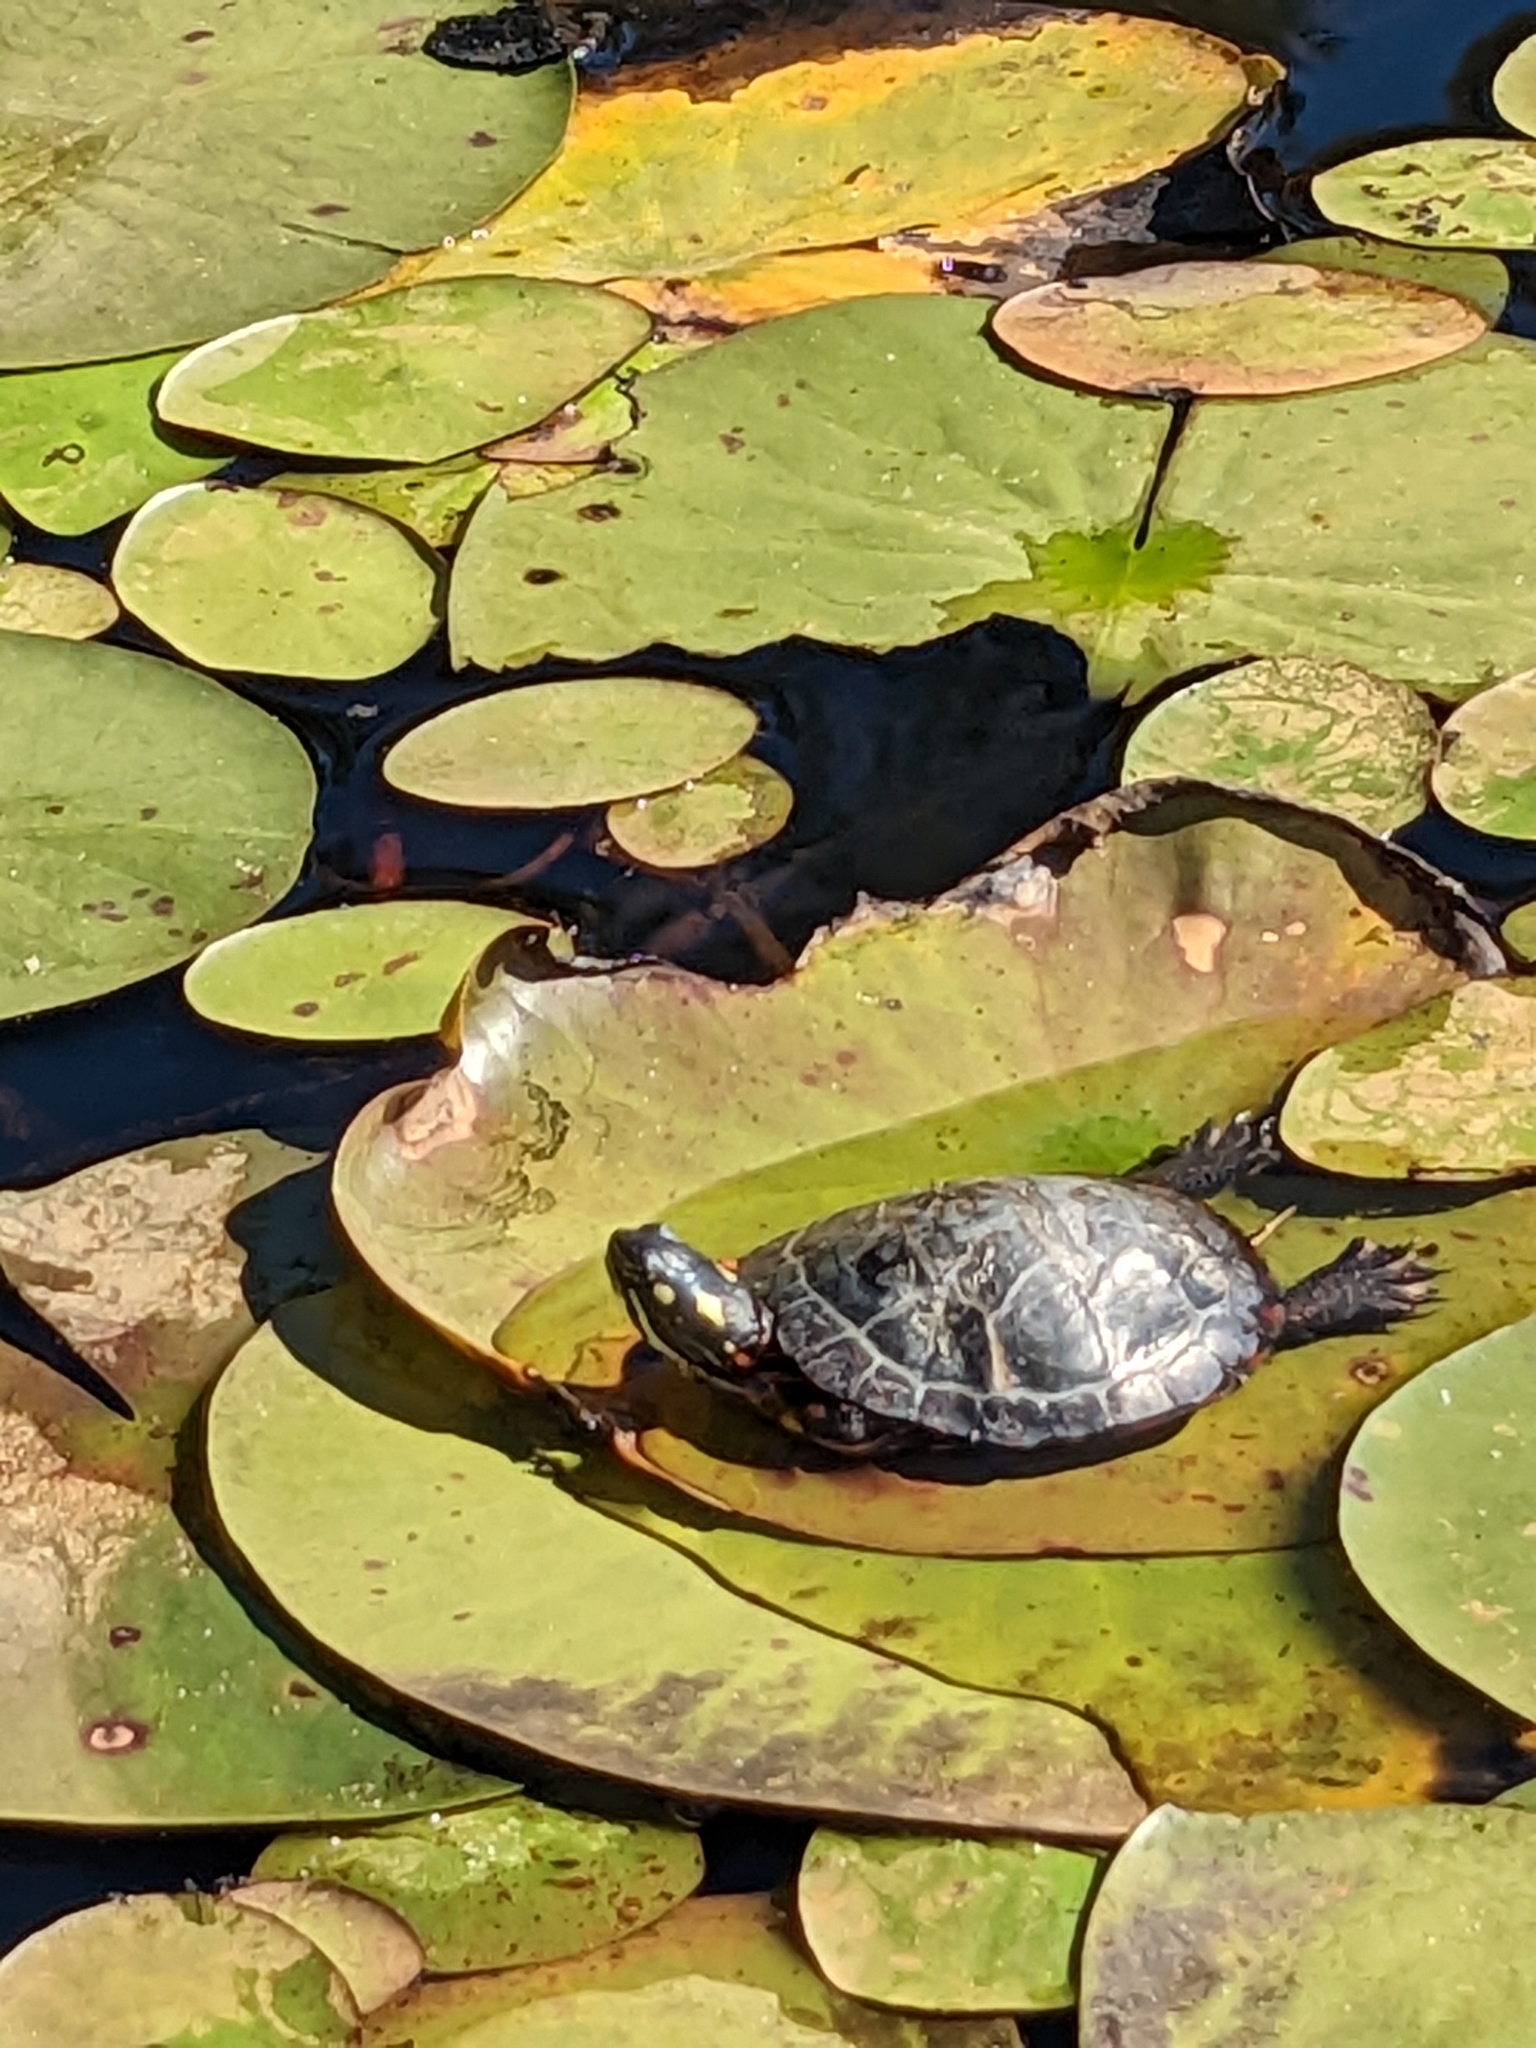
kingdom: Animalia
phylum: Chordata
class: Testudines
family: Emydidae
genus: Chrysemys
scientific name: Chrysemys picta
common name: Painted turtle
